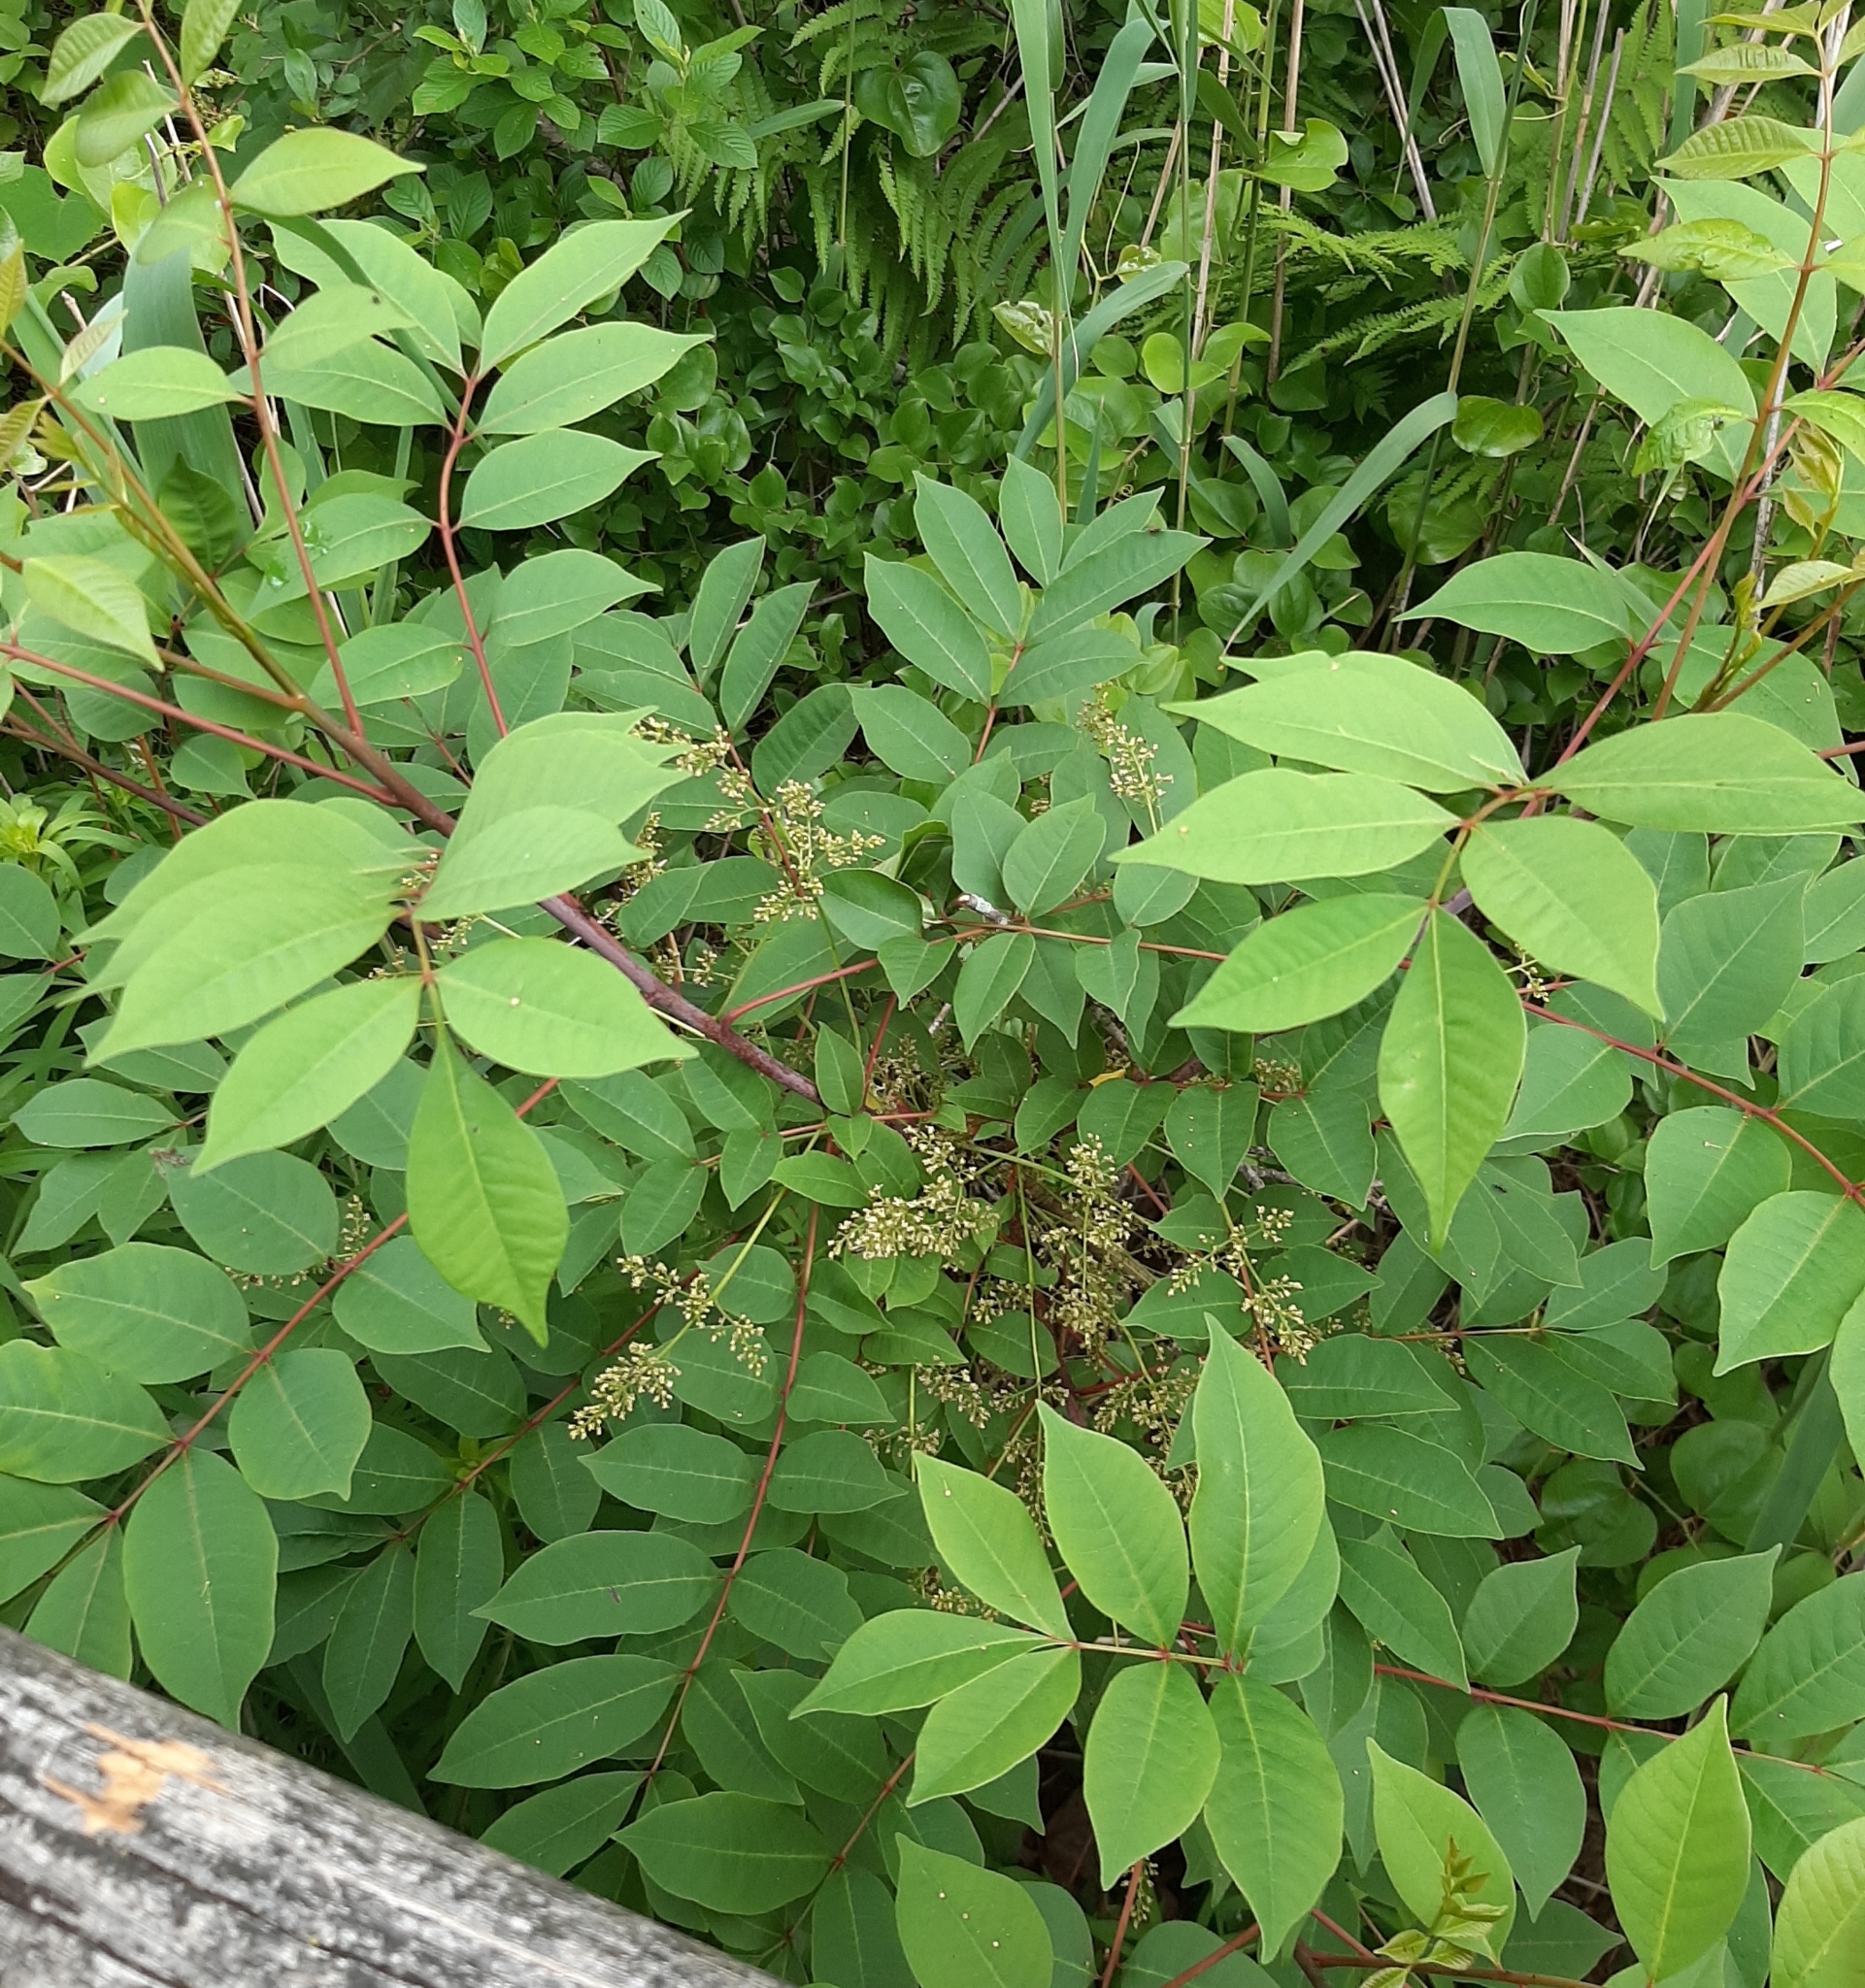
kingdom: Plantae
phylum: Tracheophyta
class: Magnoliopsida
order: Sapindales
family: Anacardiaceae
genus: Toxicodendron
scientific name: Toxicodendron vernix
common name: Poison sumac
